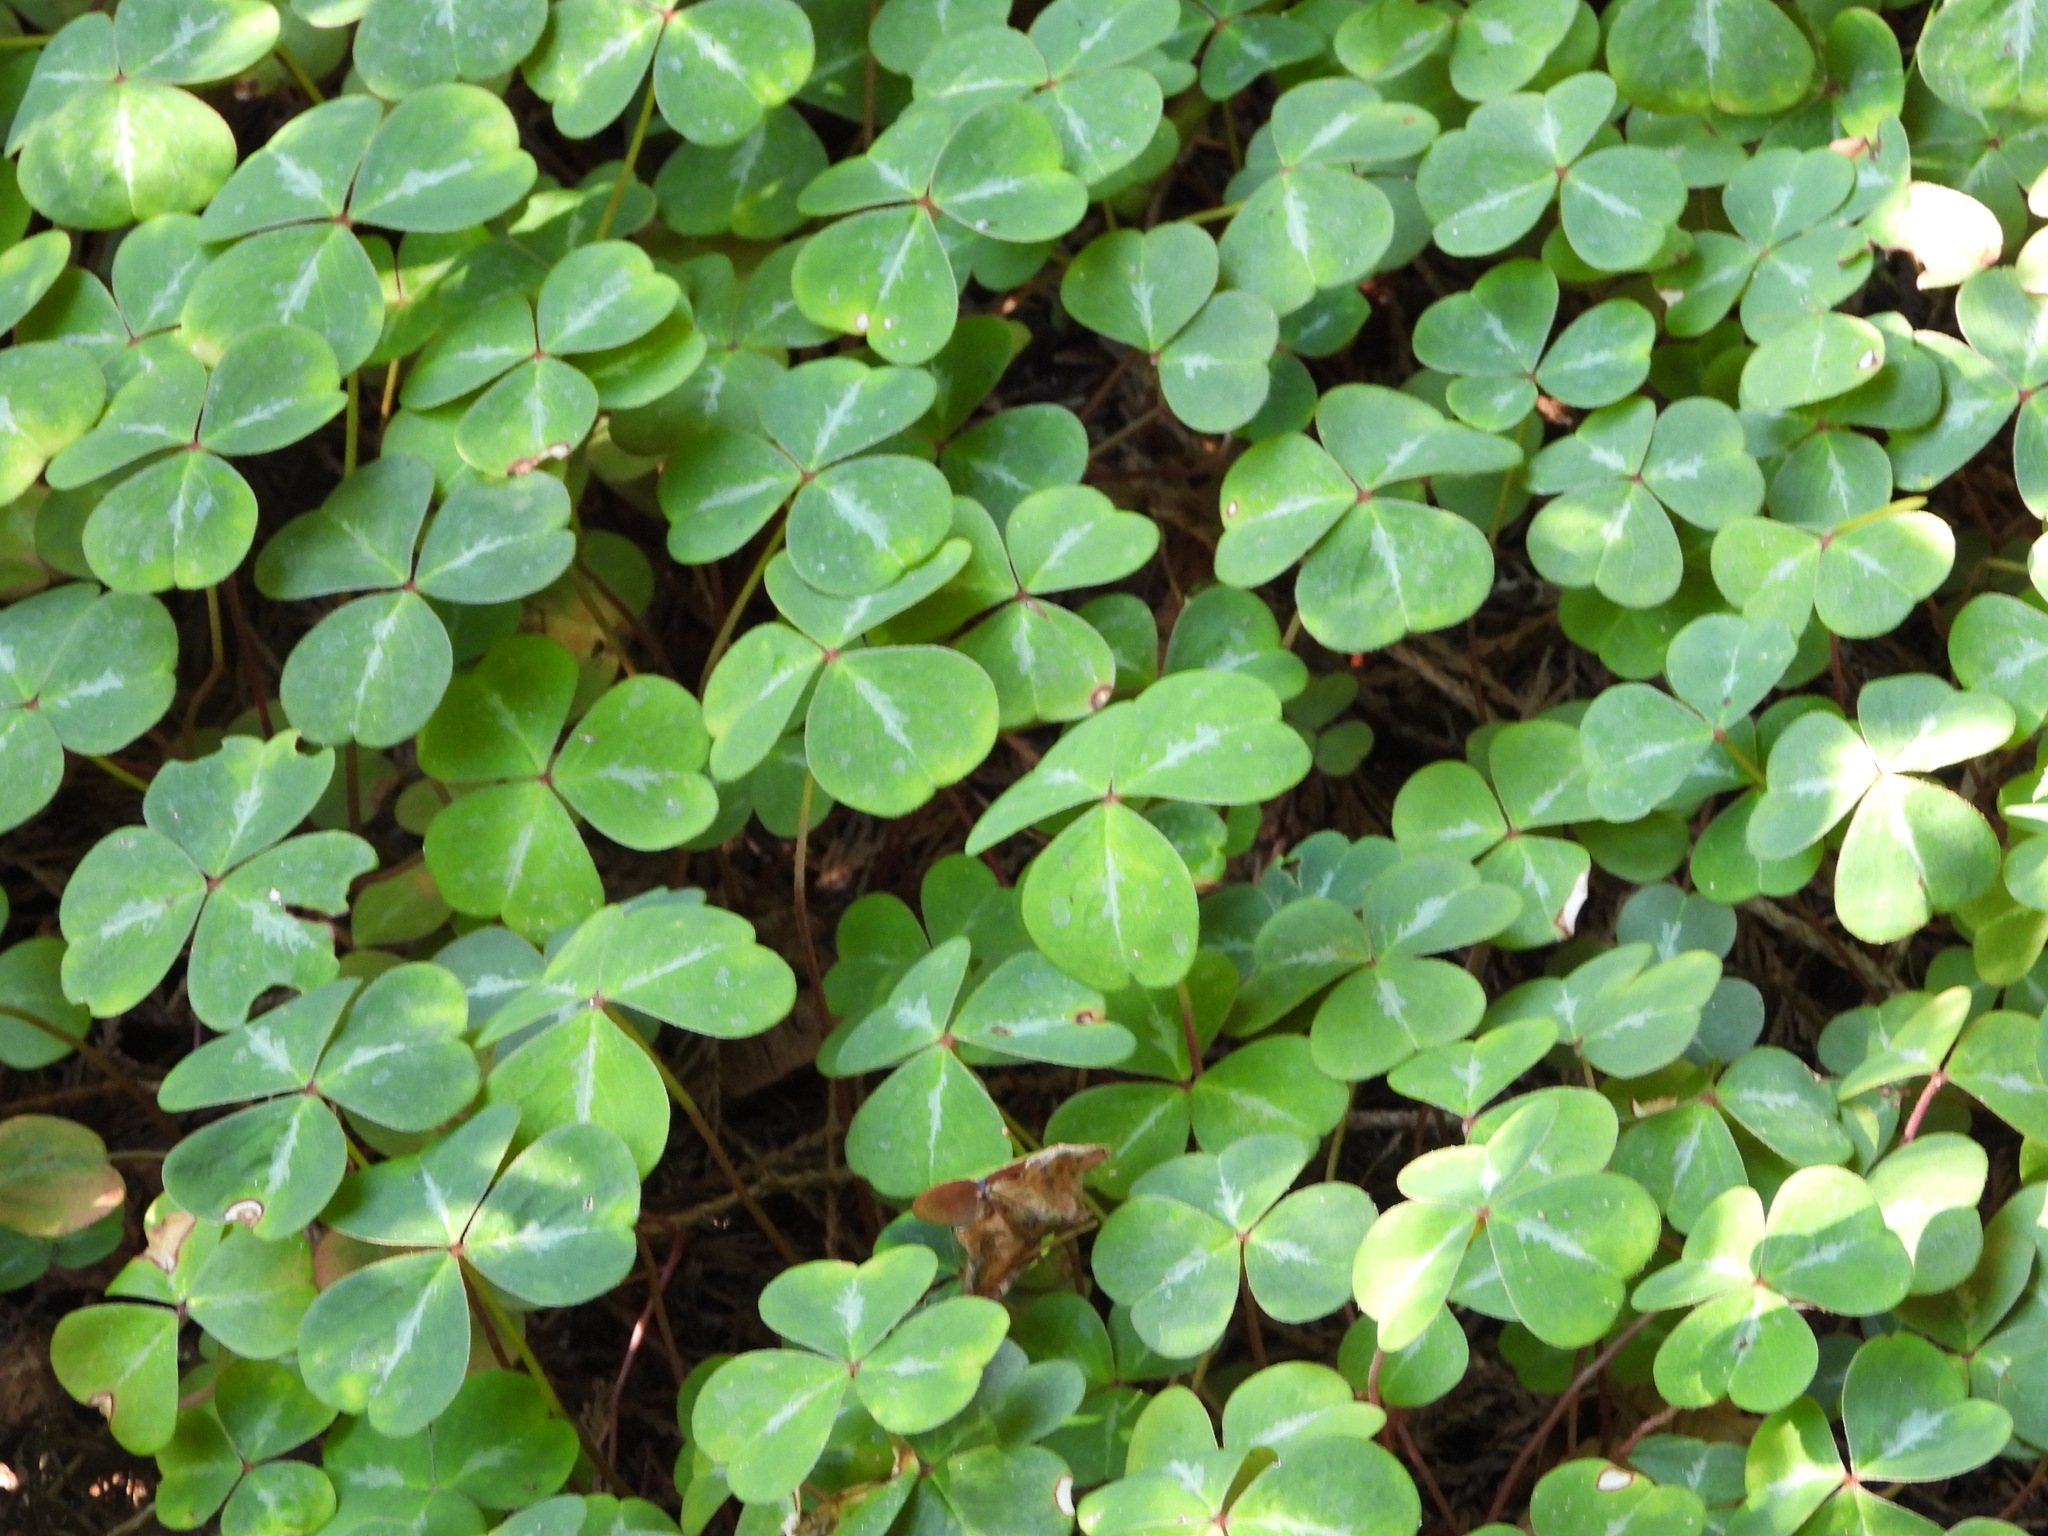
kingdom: Plantae
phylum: Tracheophyta
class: Magnoliopsida
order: Oxalidales
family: Oxalidaceae
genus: Oxalis
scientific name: Oxalis oregana
